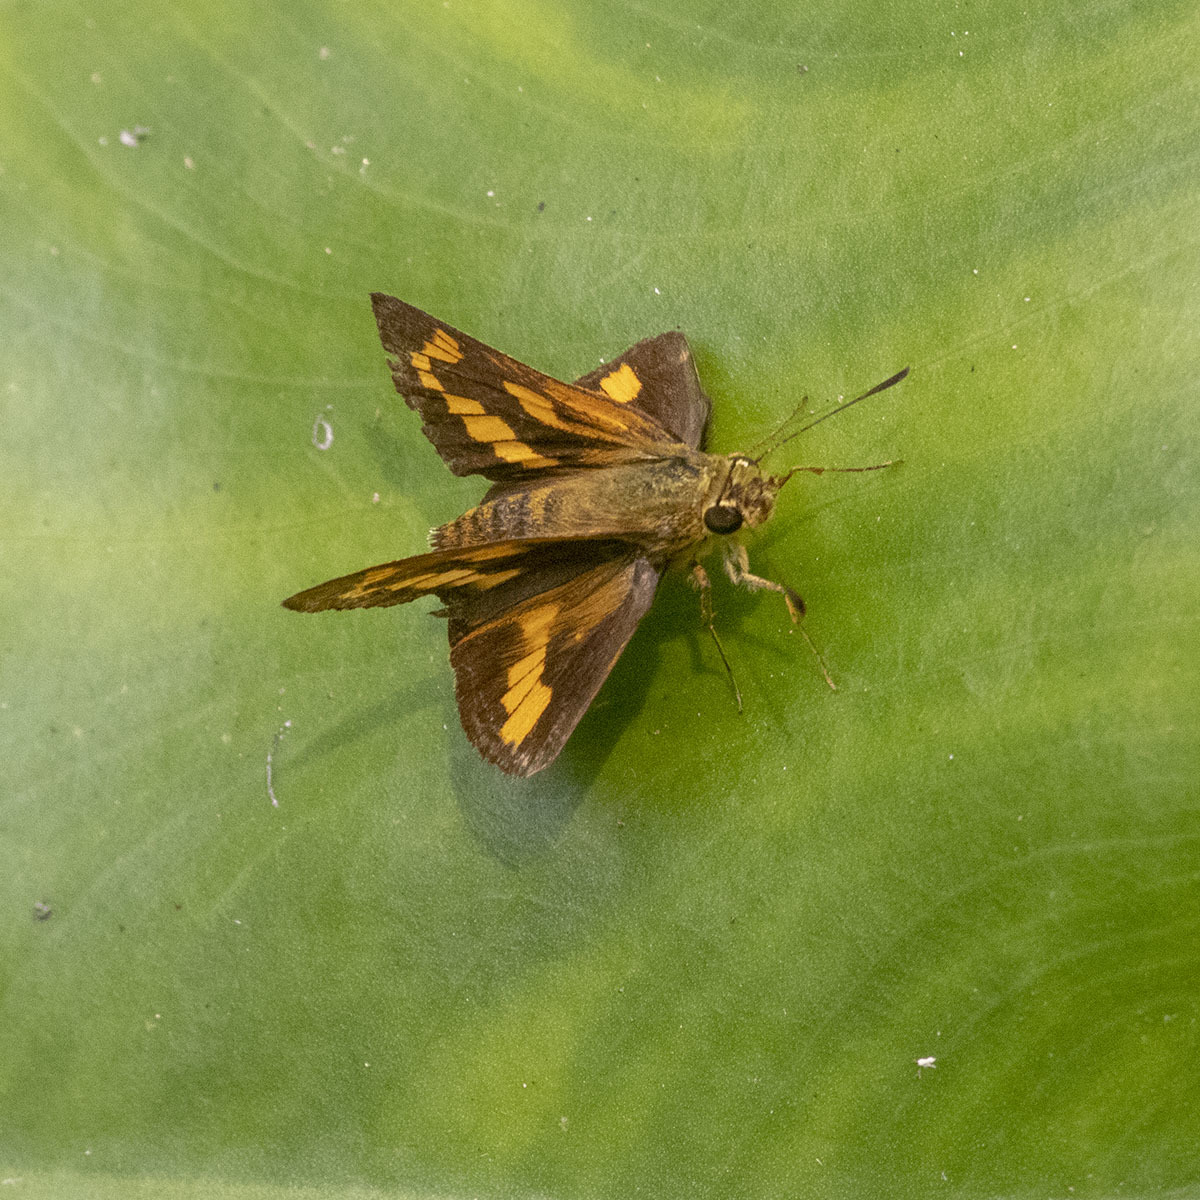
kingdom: Animalia
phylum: Arthropoda
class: Insecta
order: Lepidoptera
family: Hesperiidae
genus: Potanthus
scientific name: Potanthus palnia
